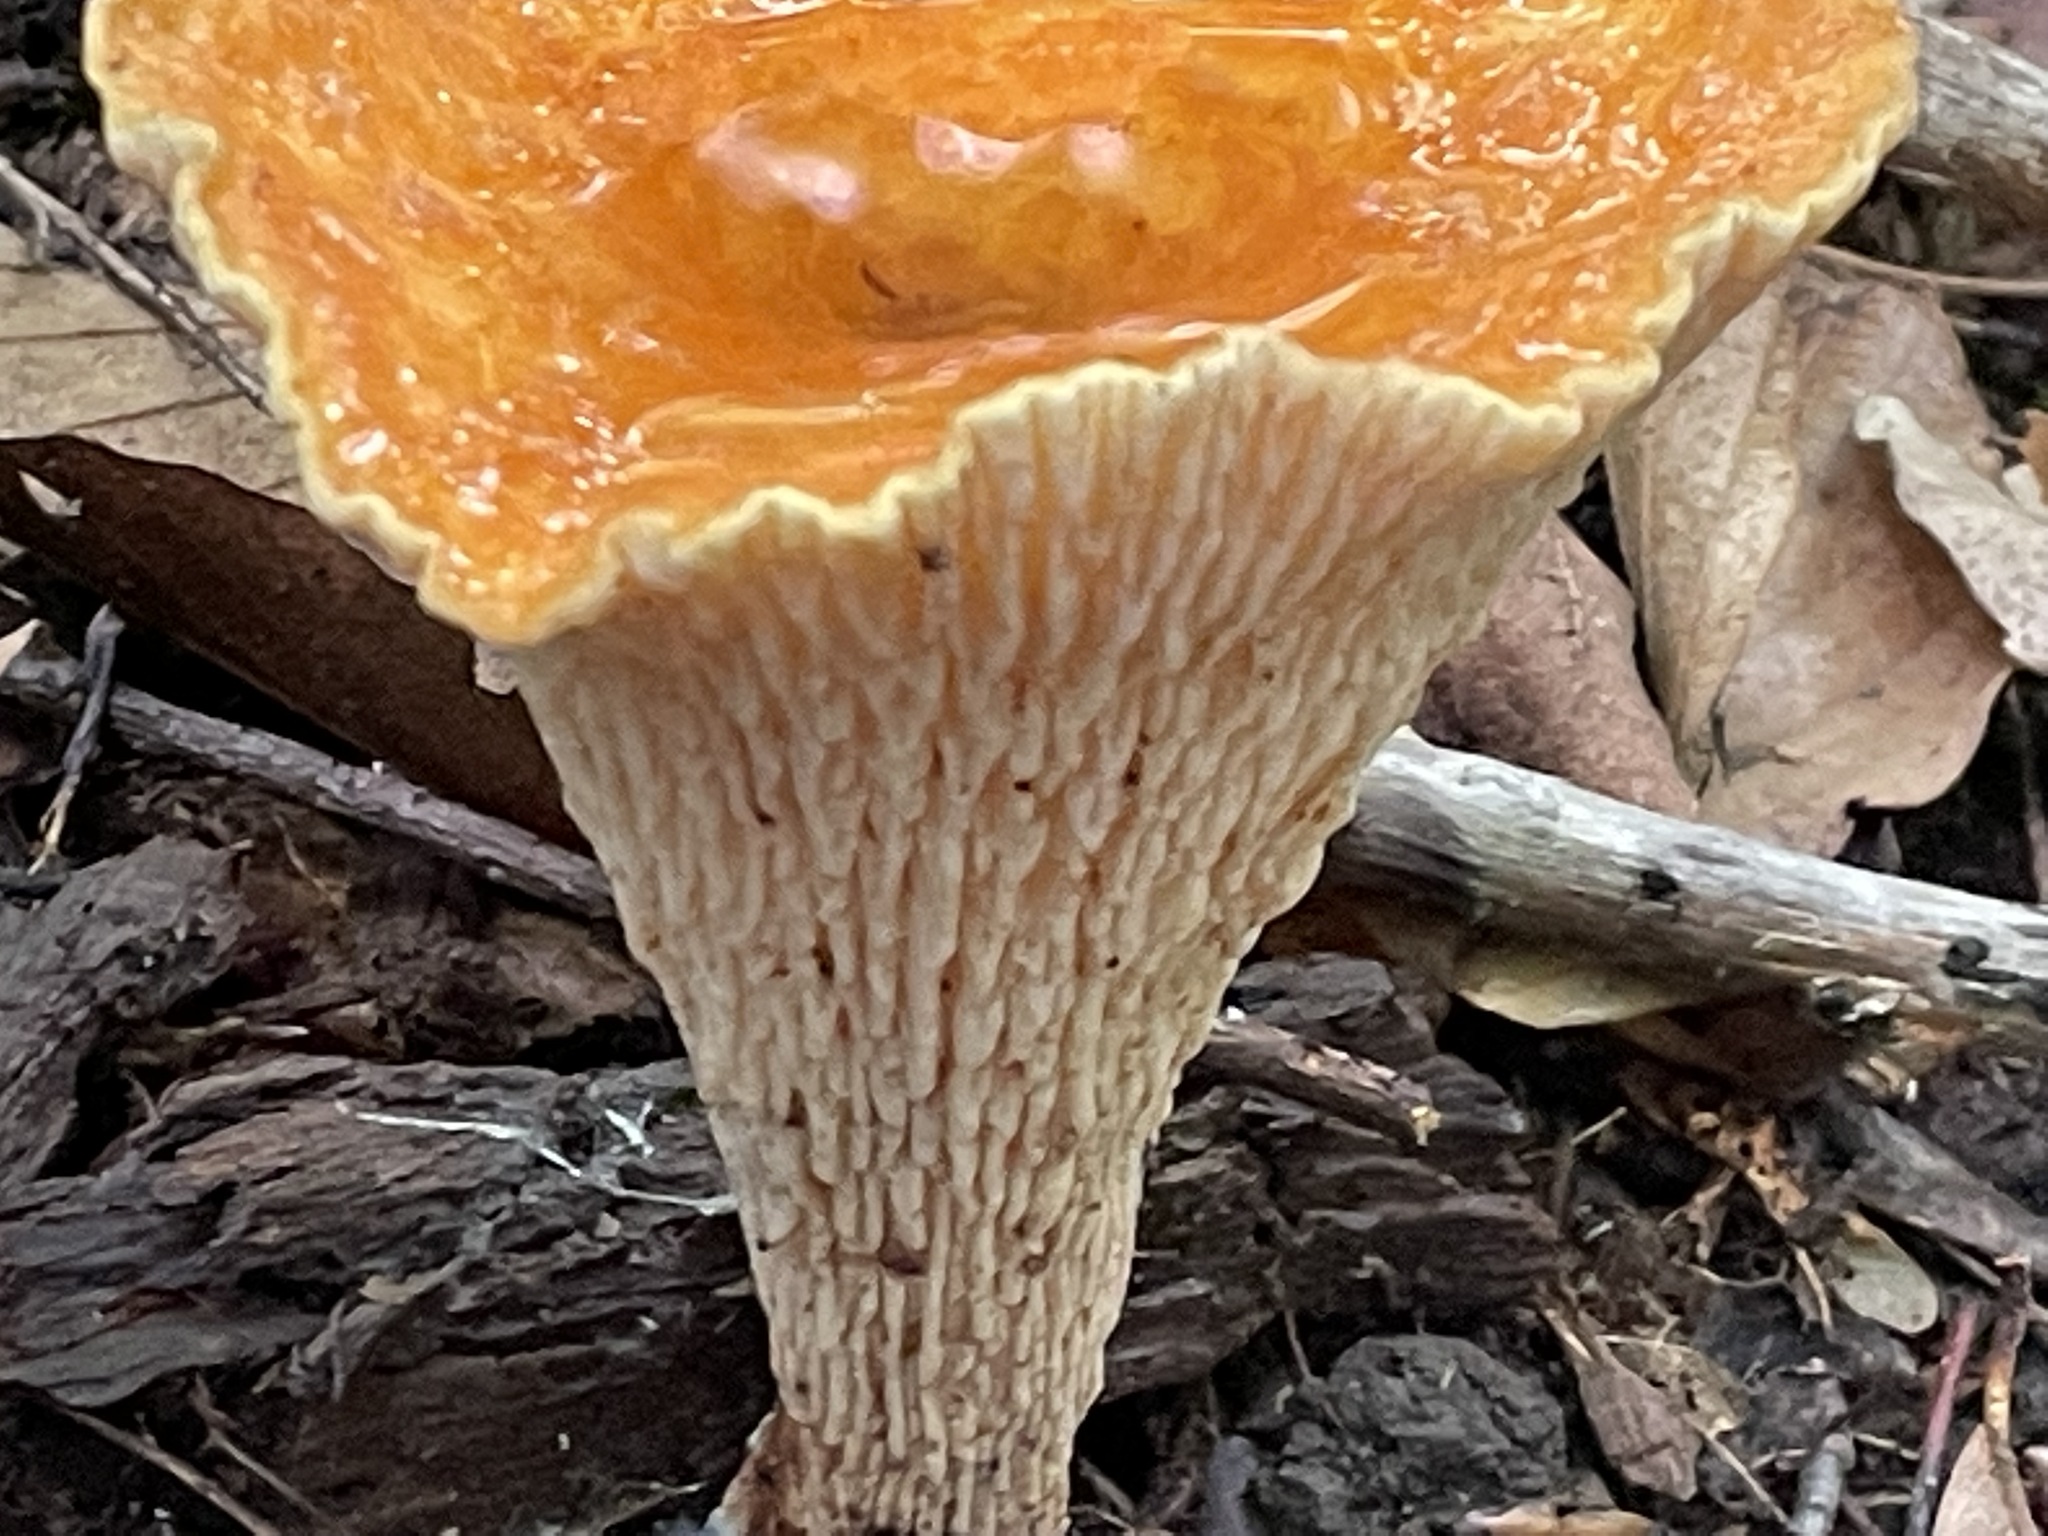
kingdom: Fungi
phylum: Basidiomycota
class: Agaricomycetes
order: Gomphales
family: Gomphaceae
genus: Turbinellus
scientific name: Turbinellus floccosus
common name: Scaly chanterelle
